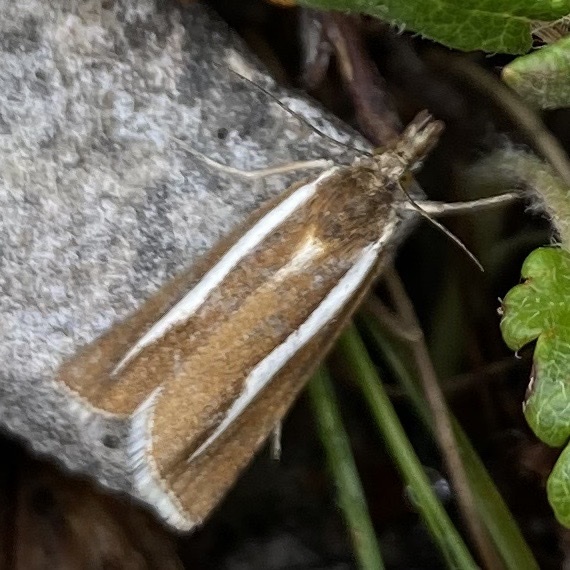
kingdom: Animalia
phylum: Arthropoda
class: Insecta
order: Lepidoptera
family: Crambidae
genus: Catoptria
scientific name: Catoptria furcatellus
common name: Northern grass-veneer
